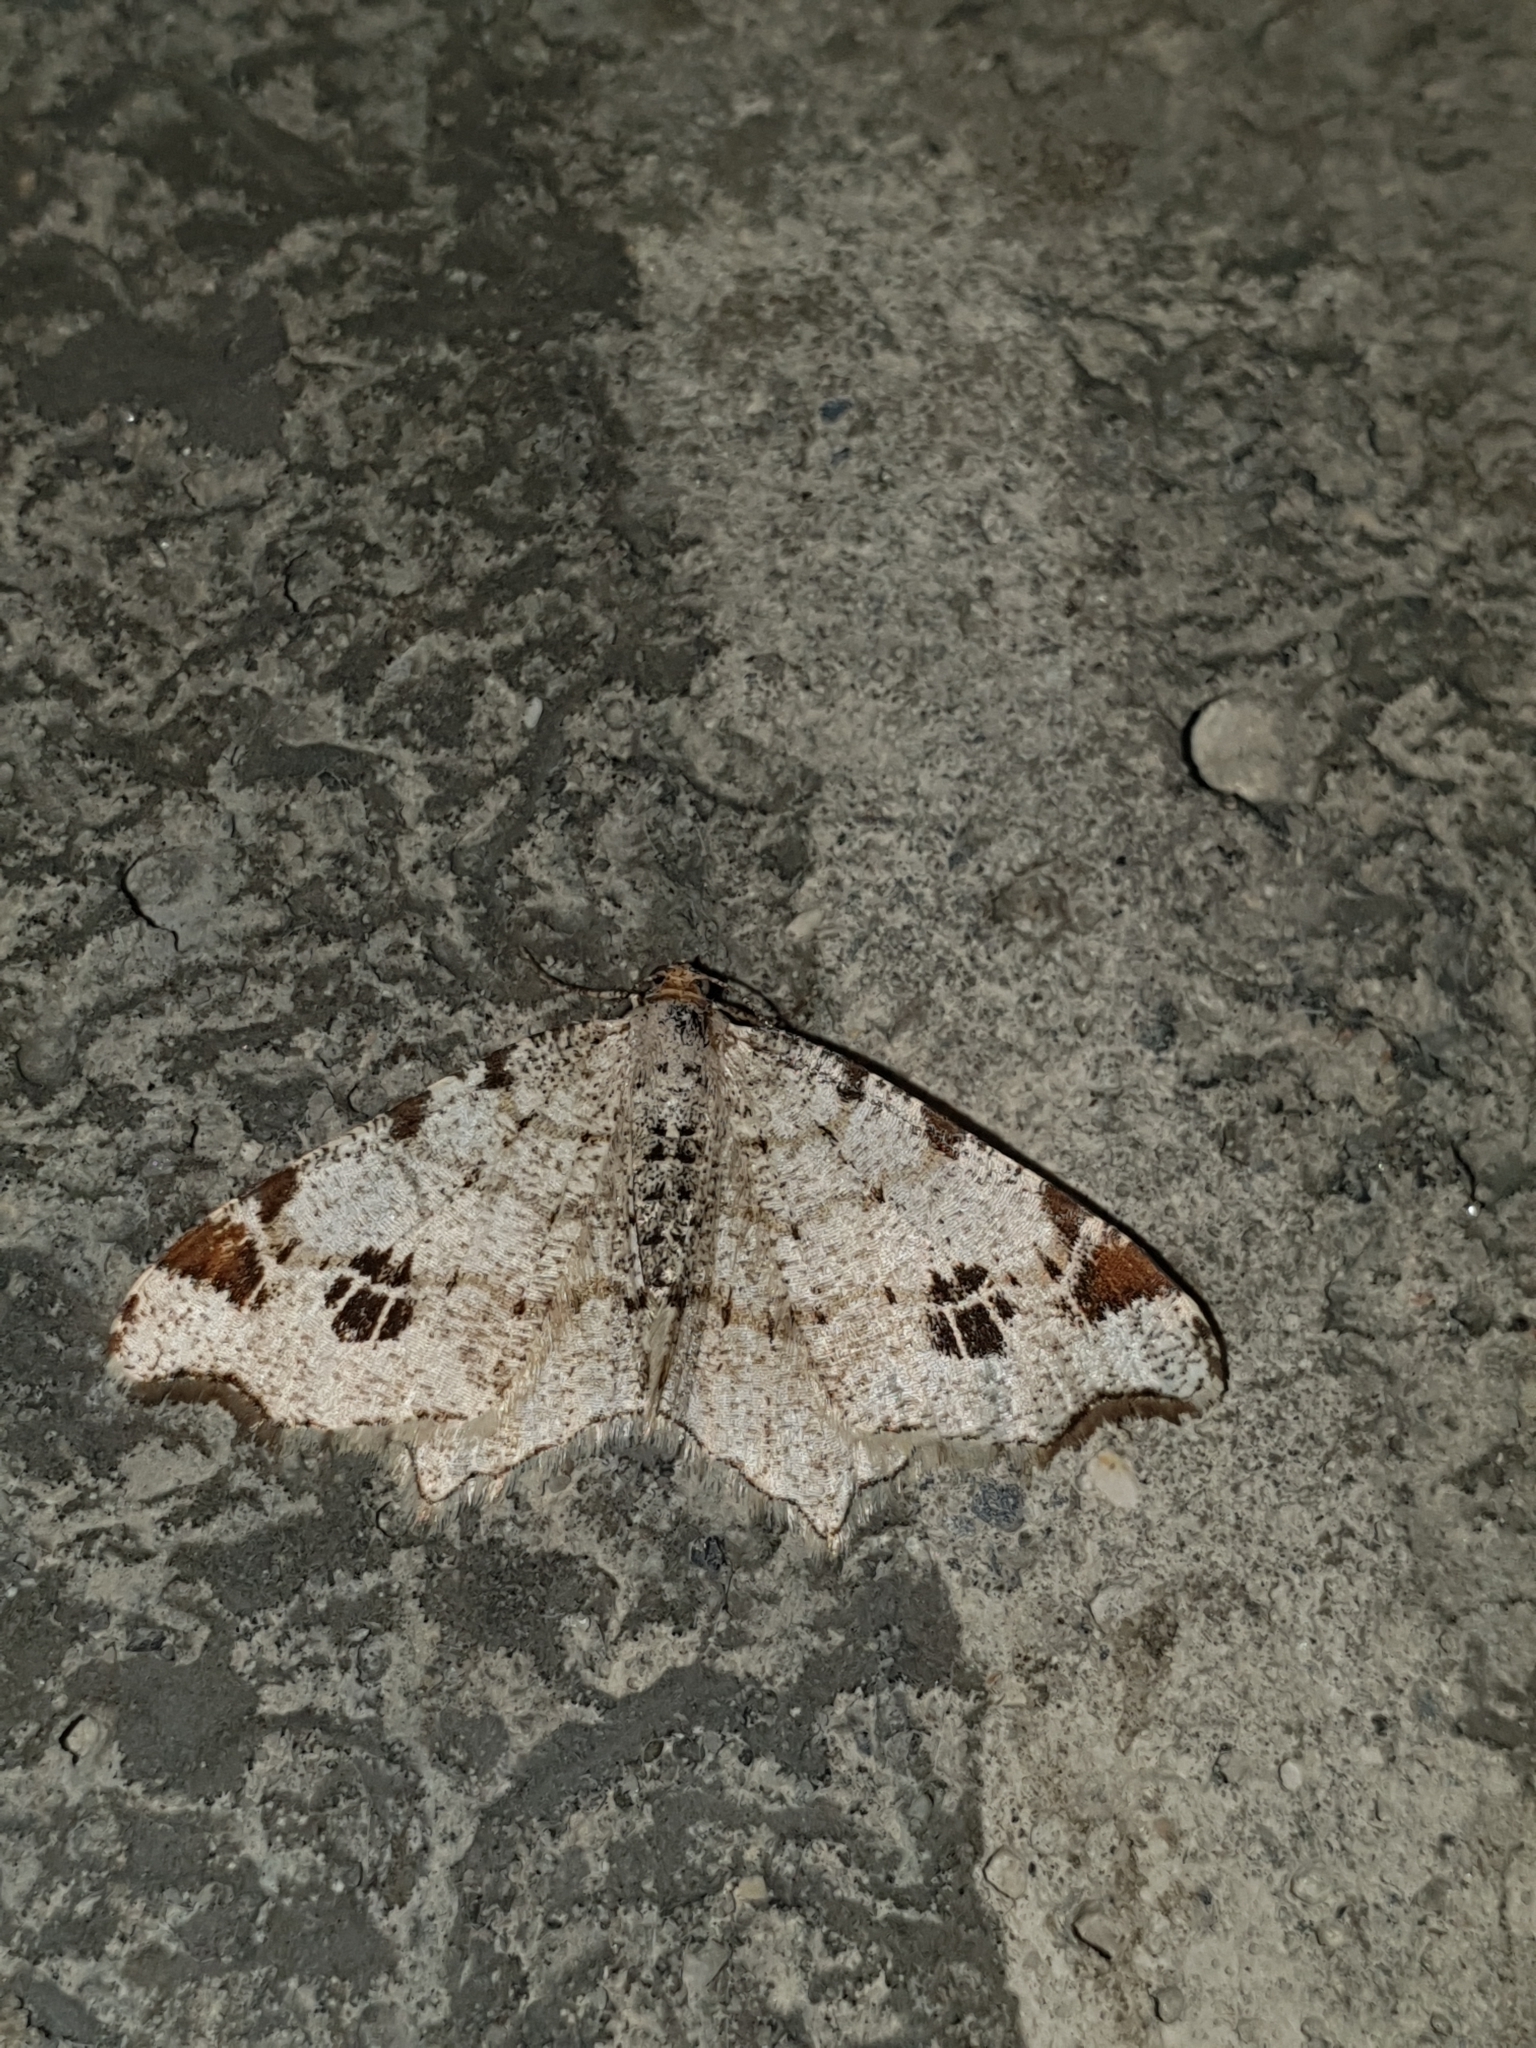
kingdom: Animalia
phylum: Arthropoda
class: Insecta
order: Lepidoptera
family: Geometridae
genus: Macaria
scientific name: Macaria notata
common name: Peacock moth
